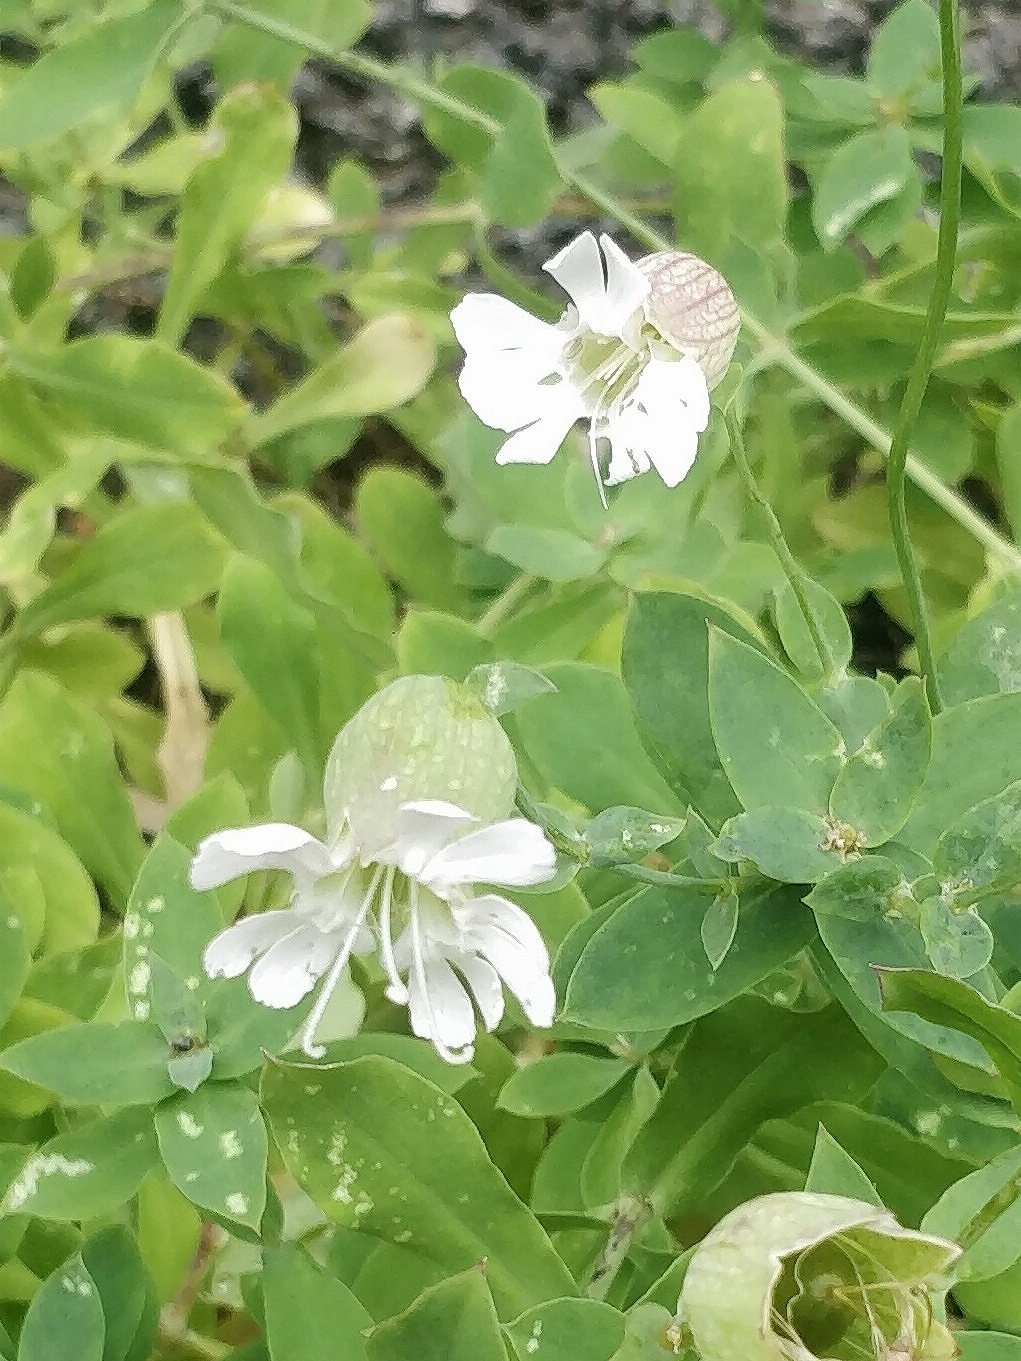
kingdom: Plantae
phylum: Tracheophyta
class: Magnoliopsida
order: Caryophyllales
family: Caryophyllaceae
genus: Silene
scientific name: Silene uniflora
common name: Sea campion
